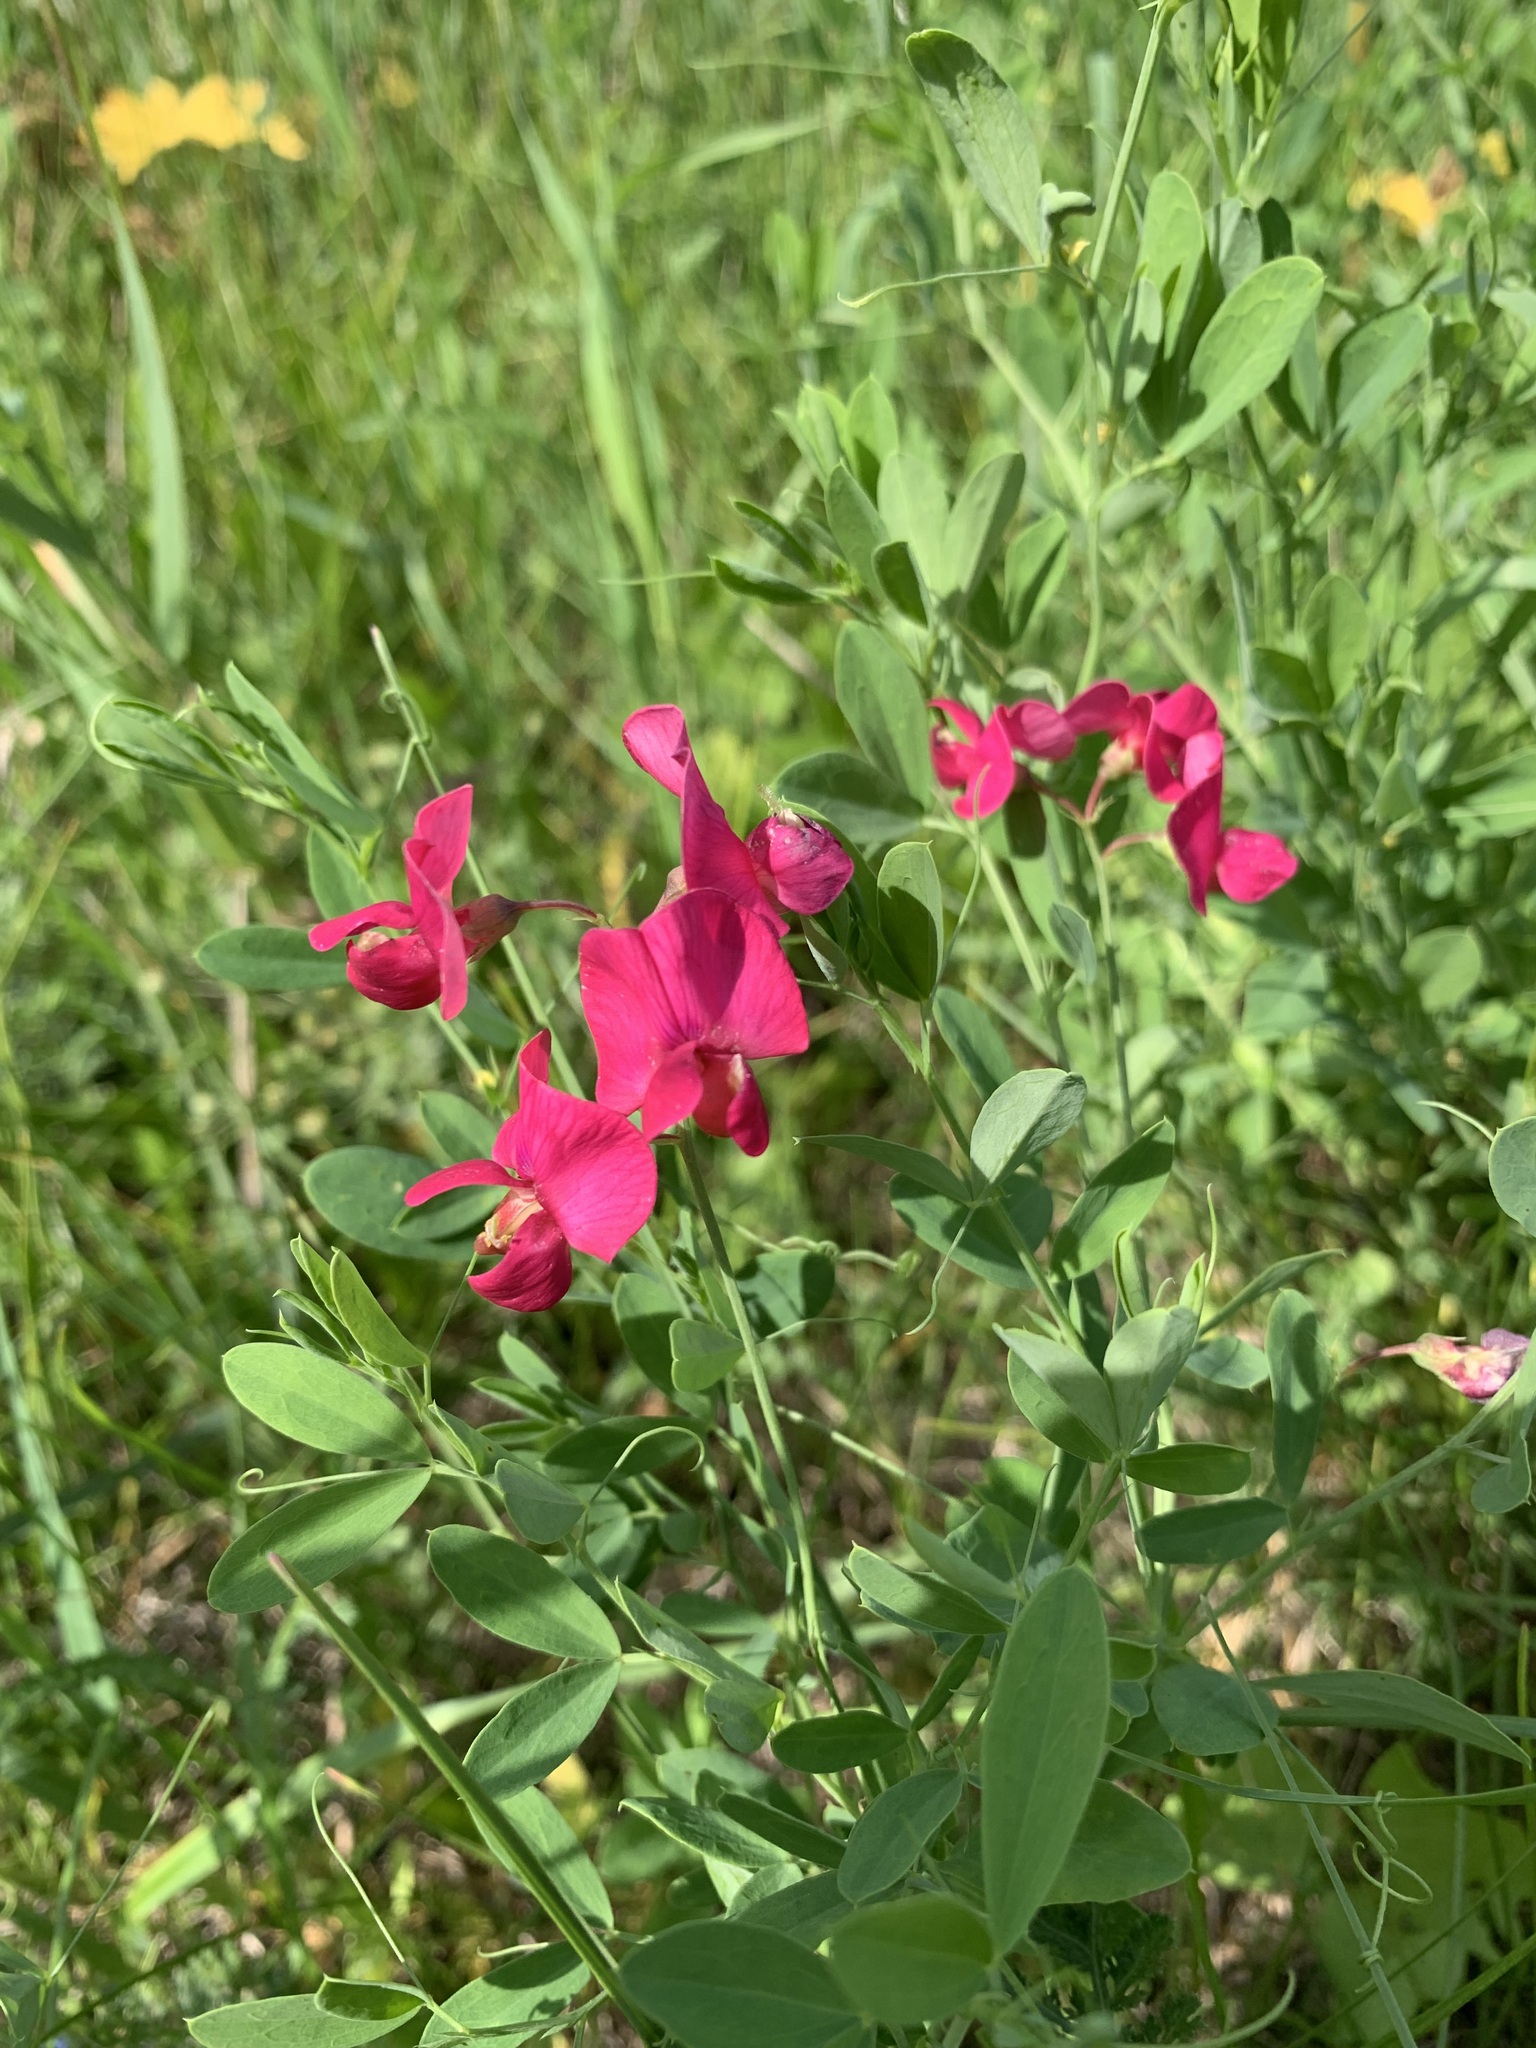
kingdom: Plantae
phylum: Tracheophyta
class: Magnoliopsida
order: Fabales
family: Fabaceae
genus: Lathyrus
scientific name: Lathyrus tuberosus
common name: Tuberous pea
